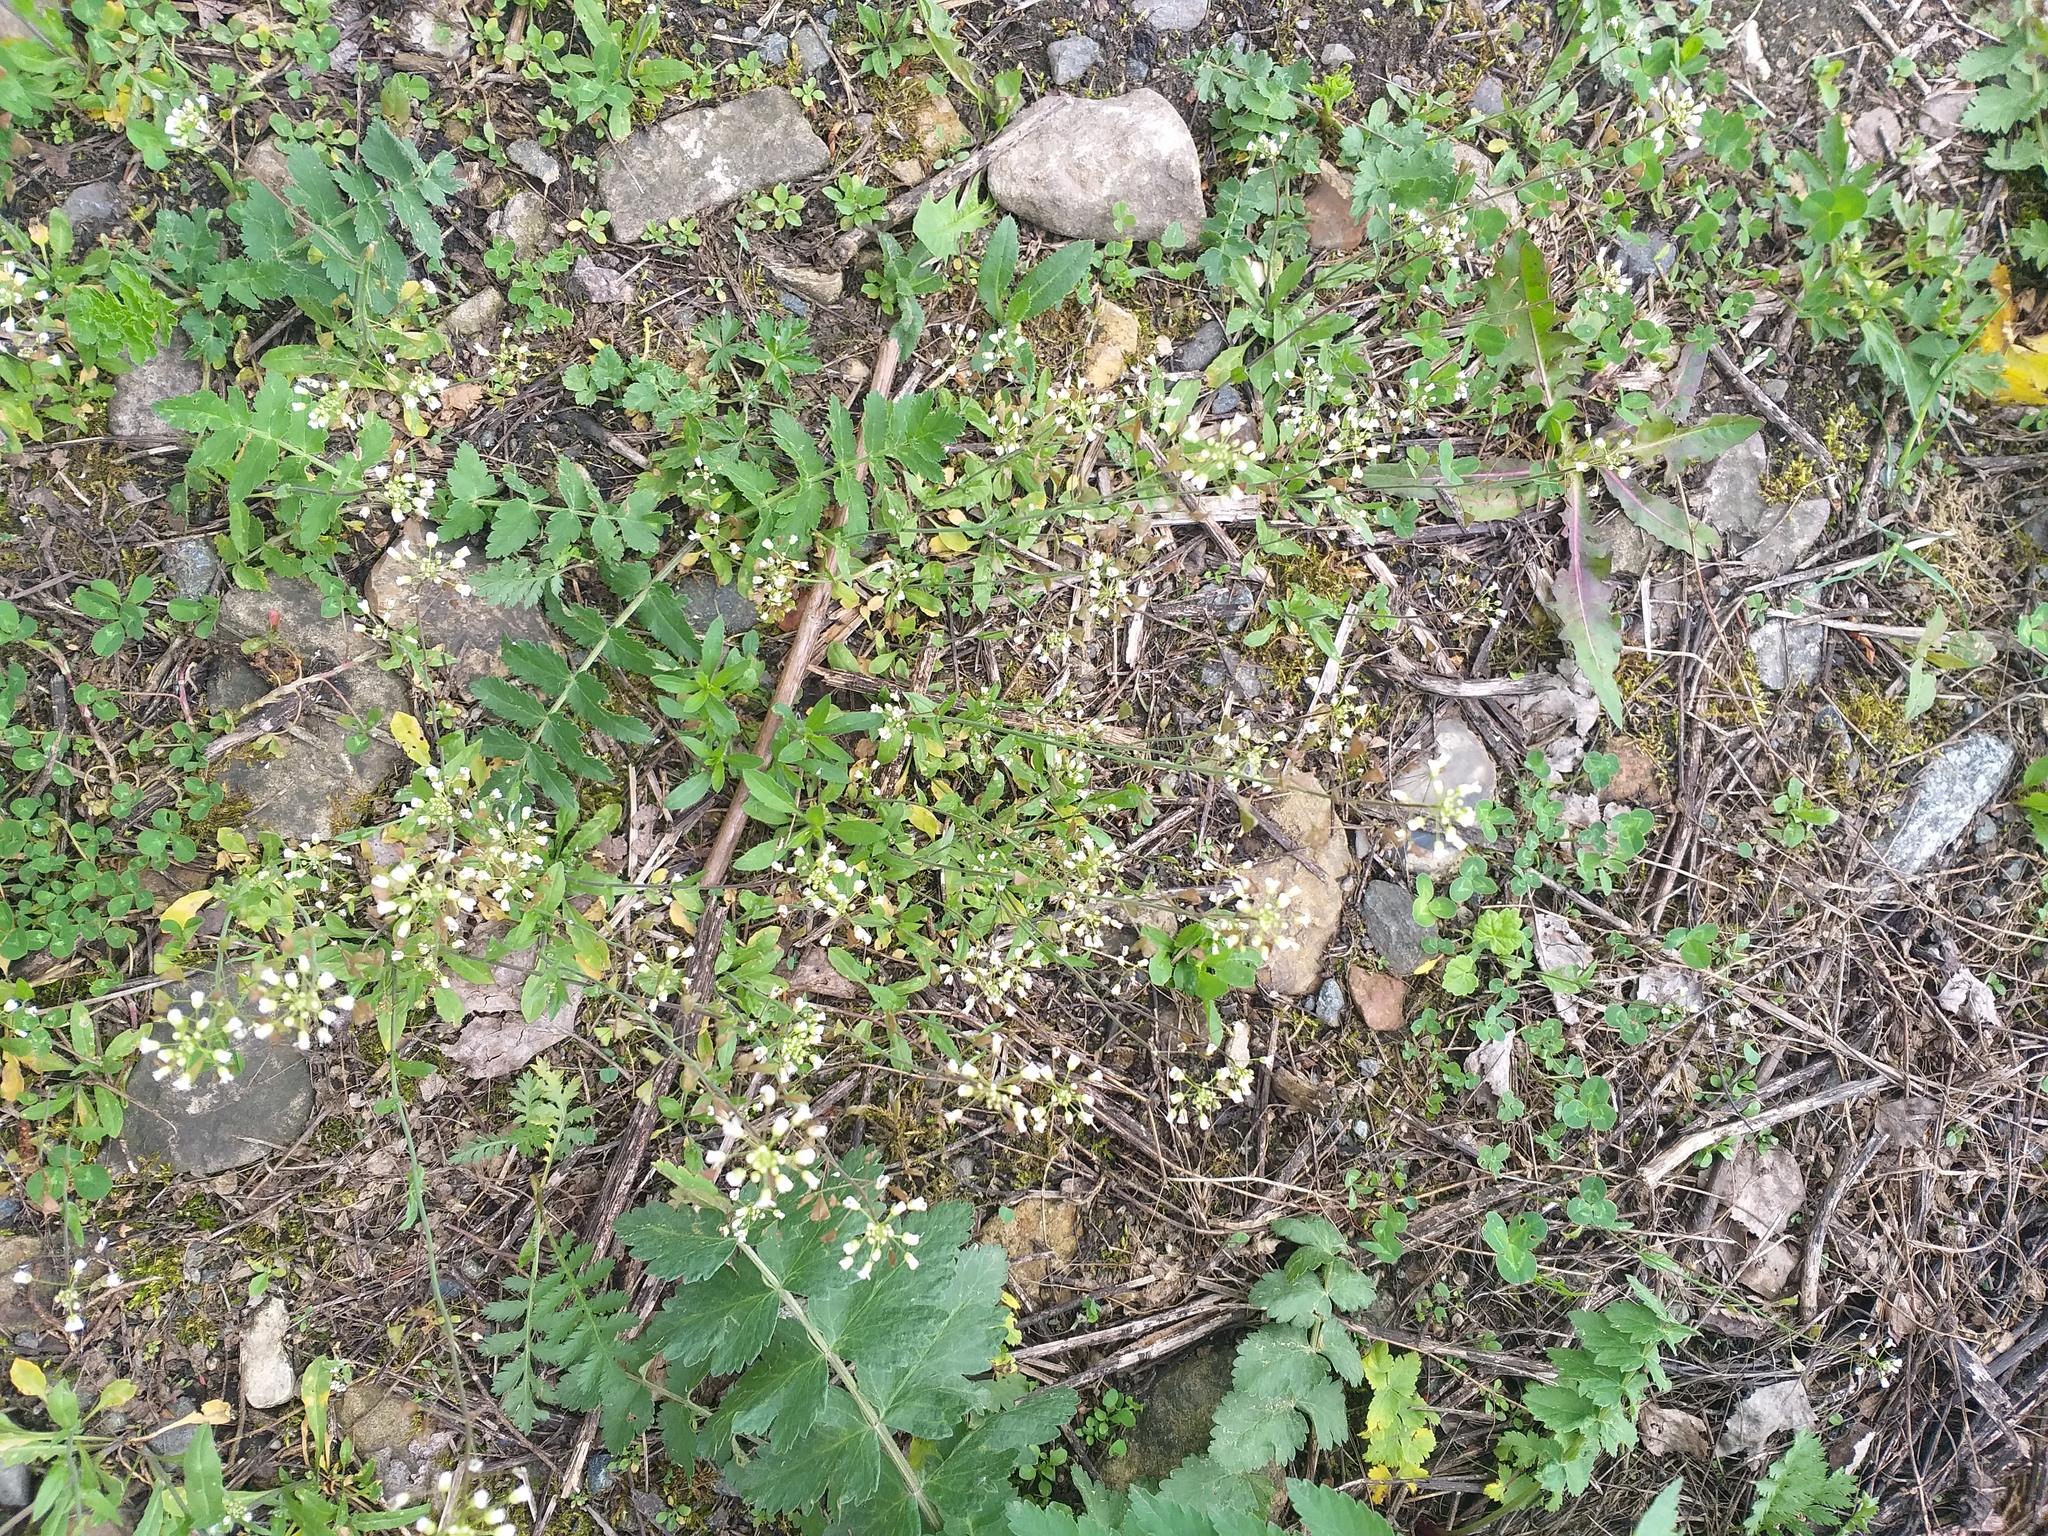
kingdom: Plantae
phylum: Tracheophyta
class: Magnoliopsida
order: Brassicales
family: Brassicaceae
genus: Capsella
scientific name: Capsella bursa-pastoris
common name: Shepherd's purse
